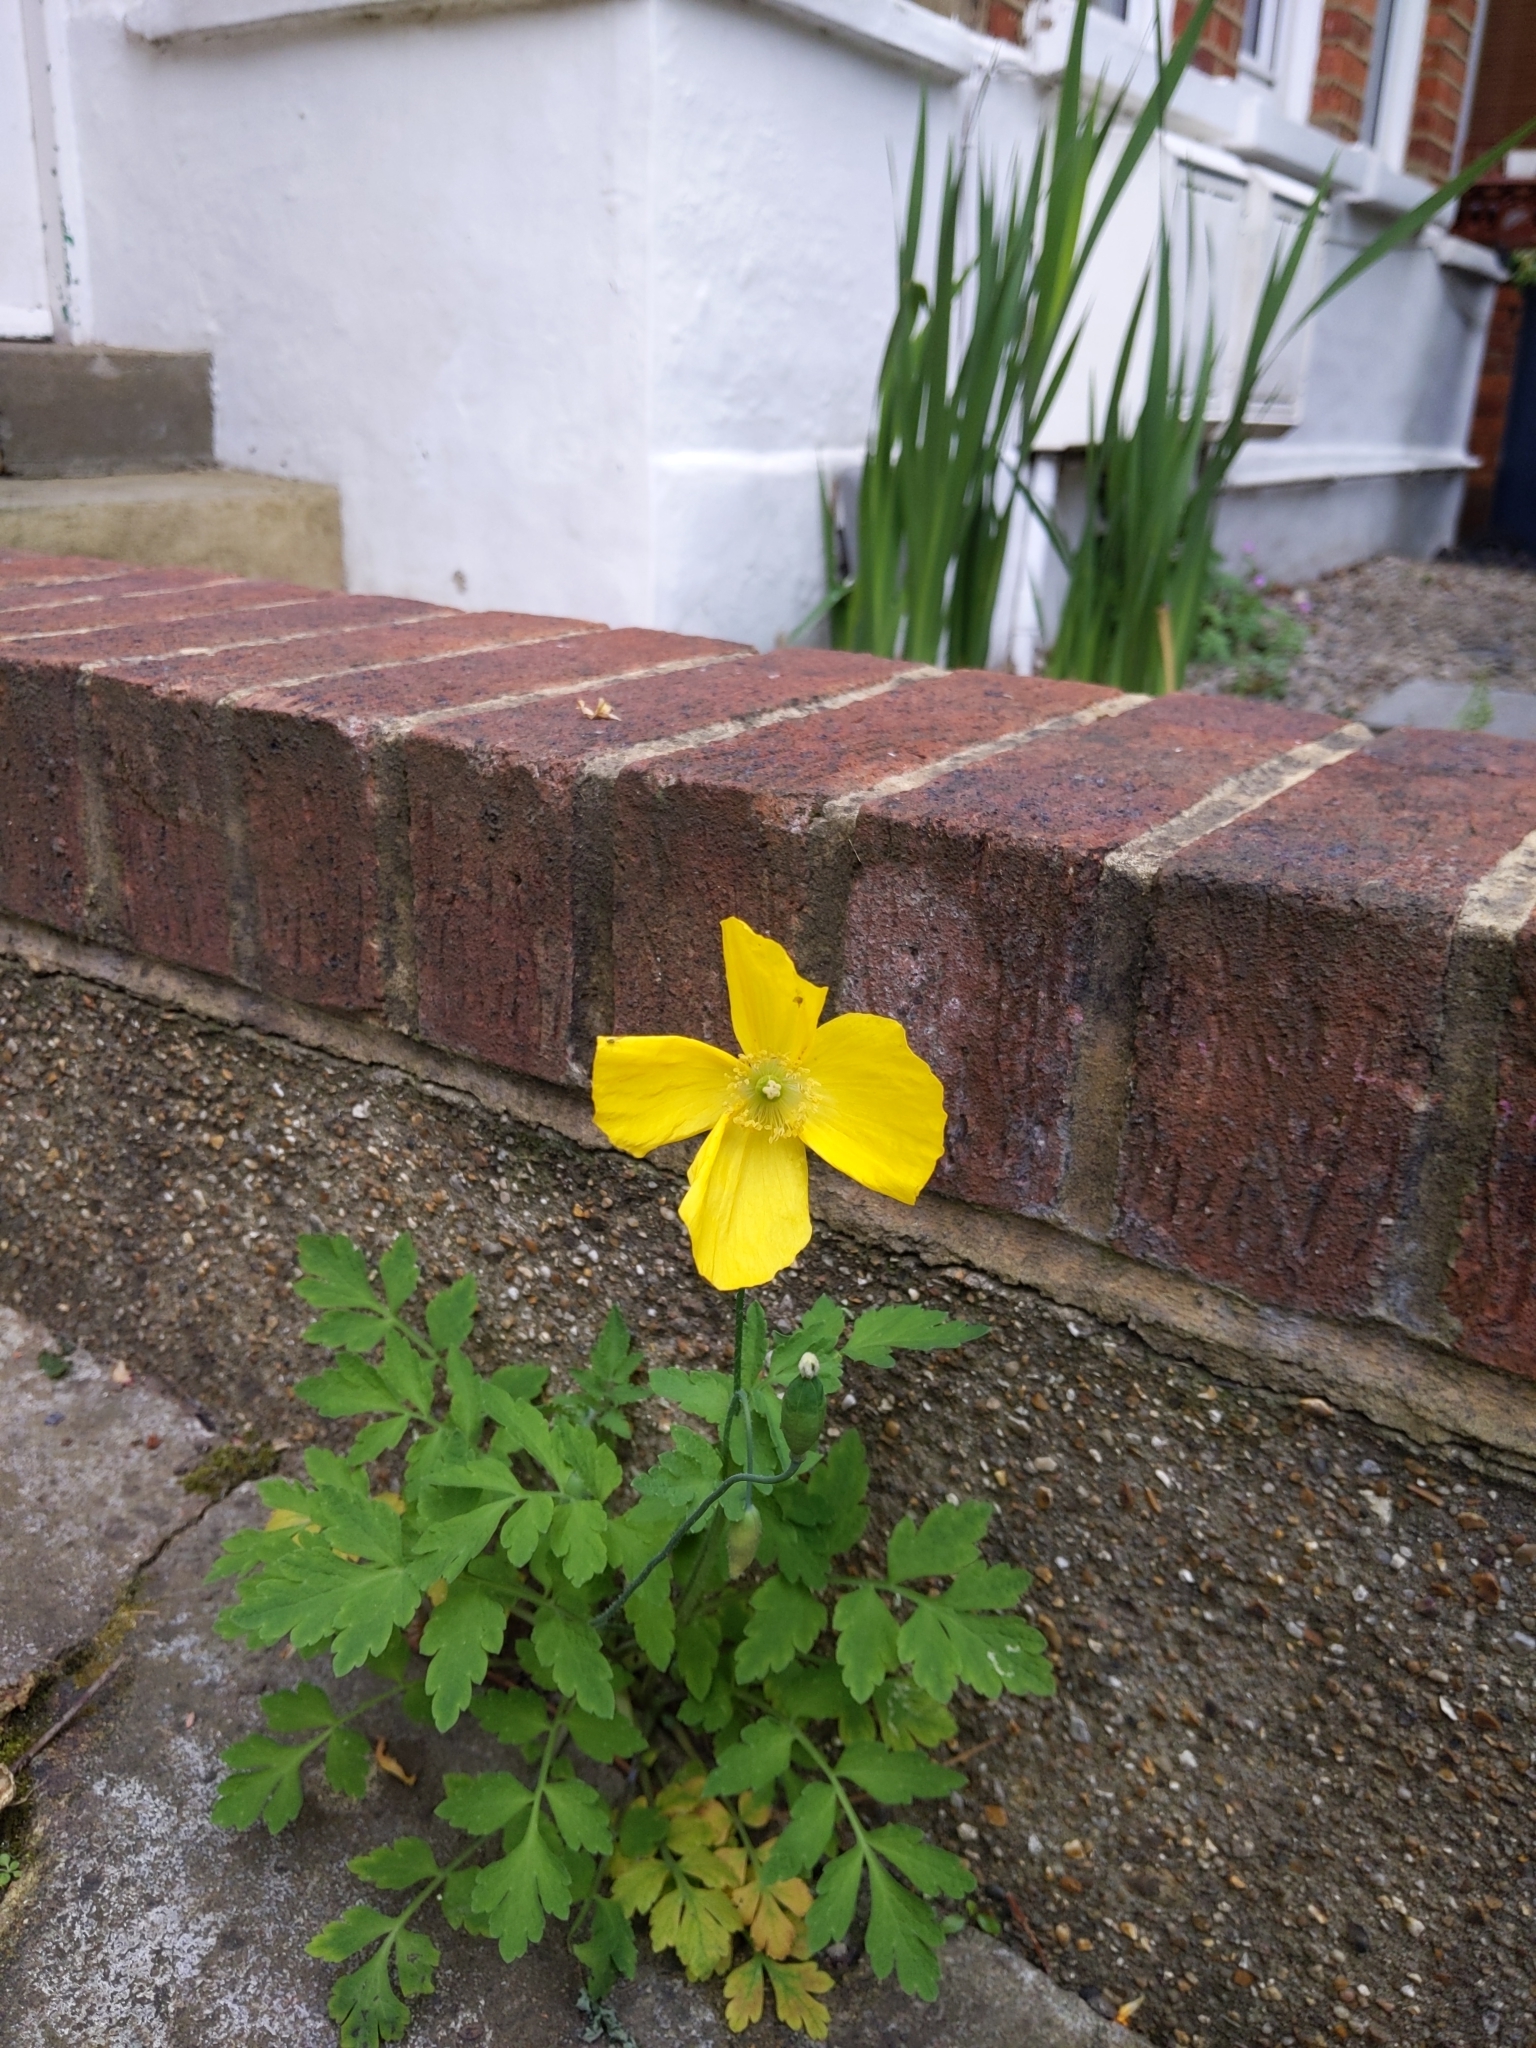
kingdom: Plantae
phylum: Tracheophyta
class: Magnoliopsida
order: Ranunculales
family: Papaveraceae
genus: Papaver
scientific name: Papaver cambricum
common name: Poppy
